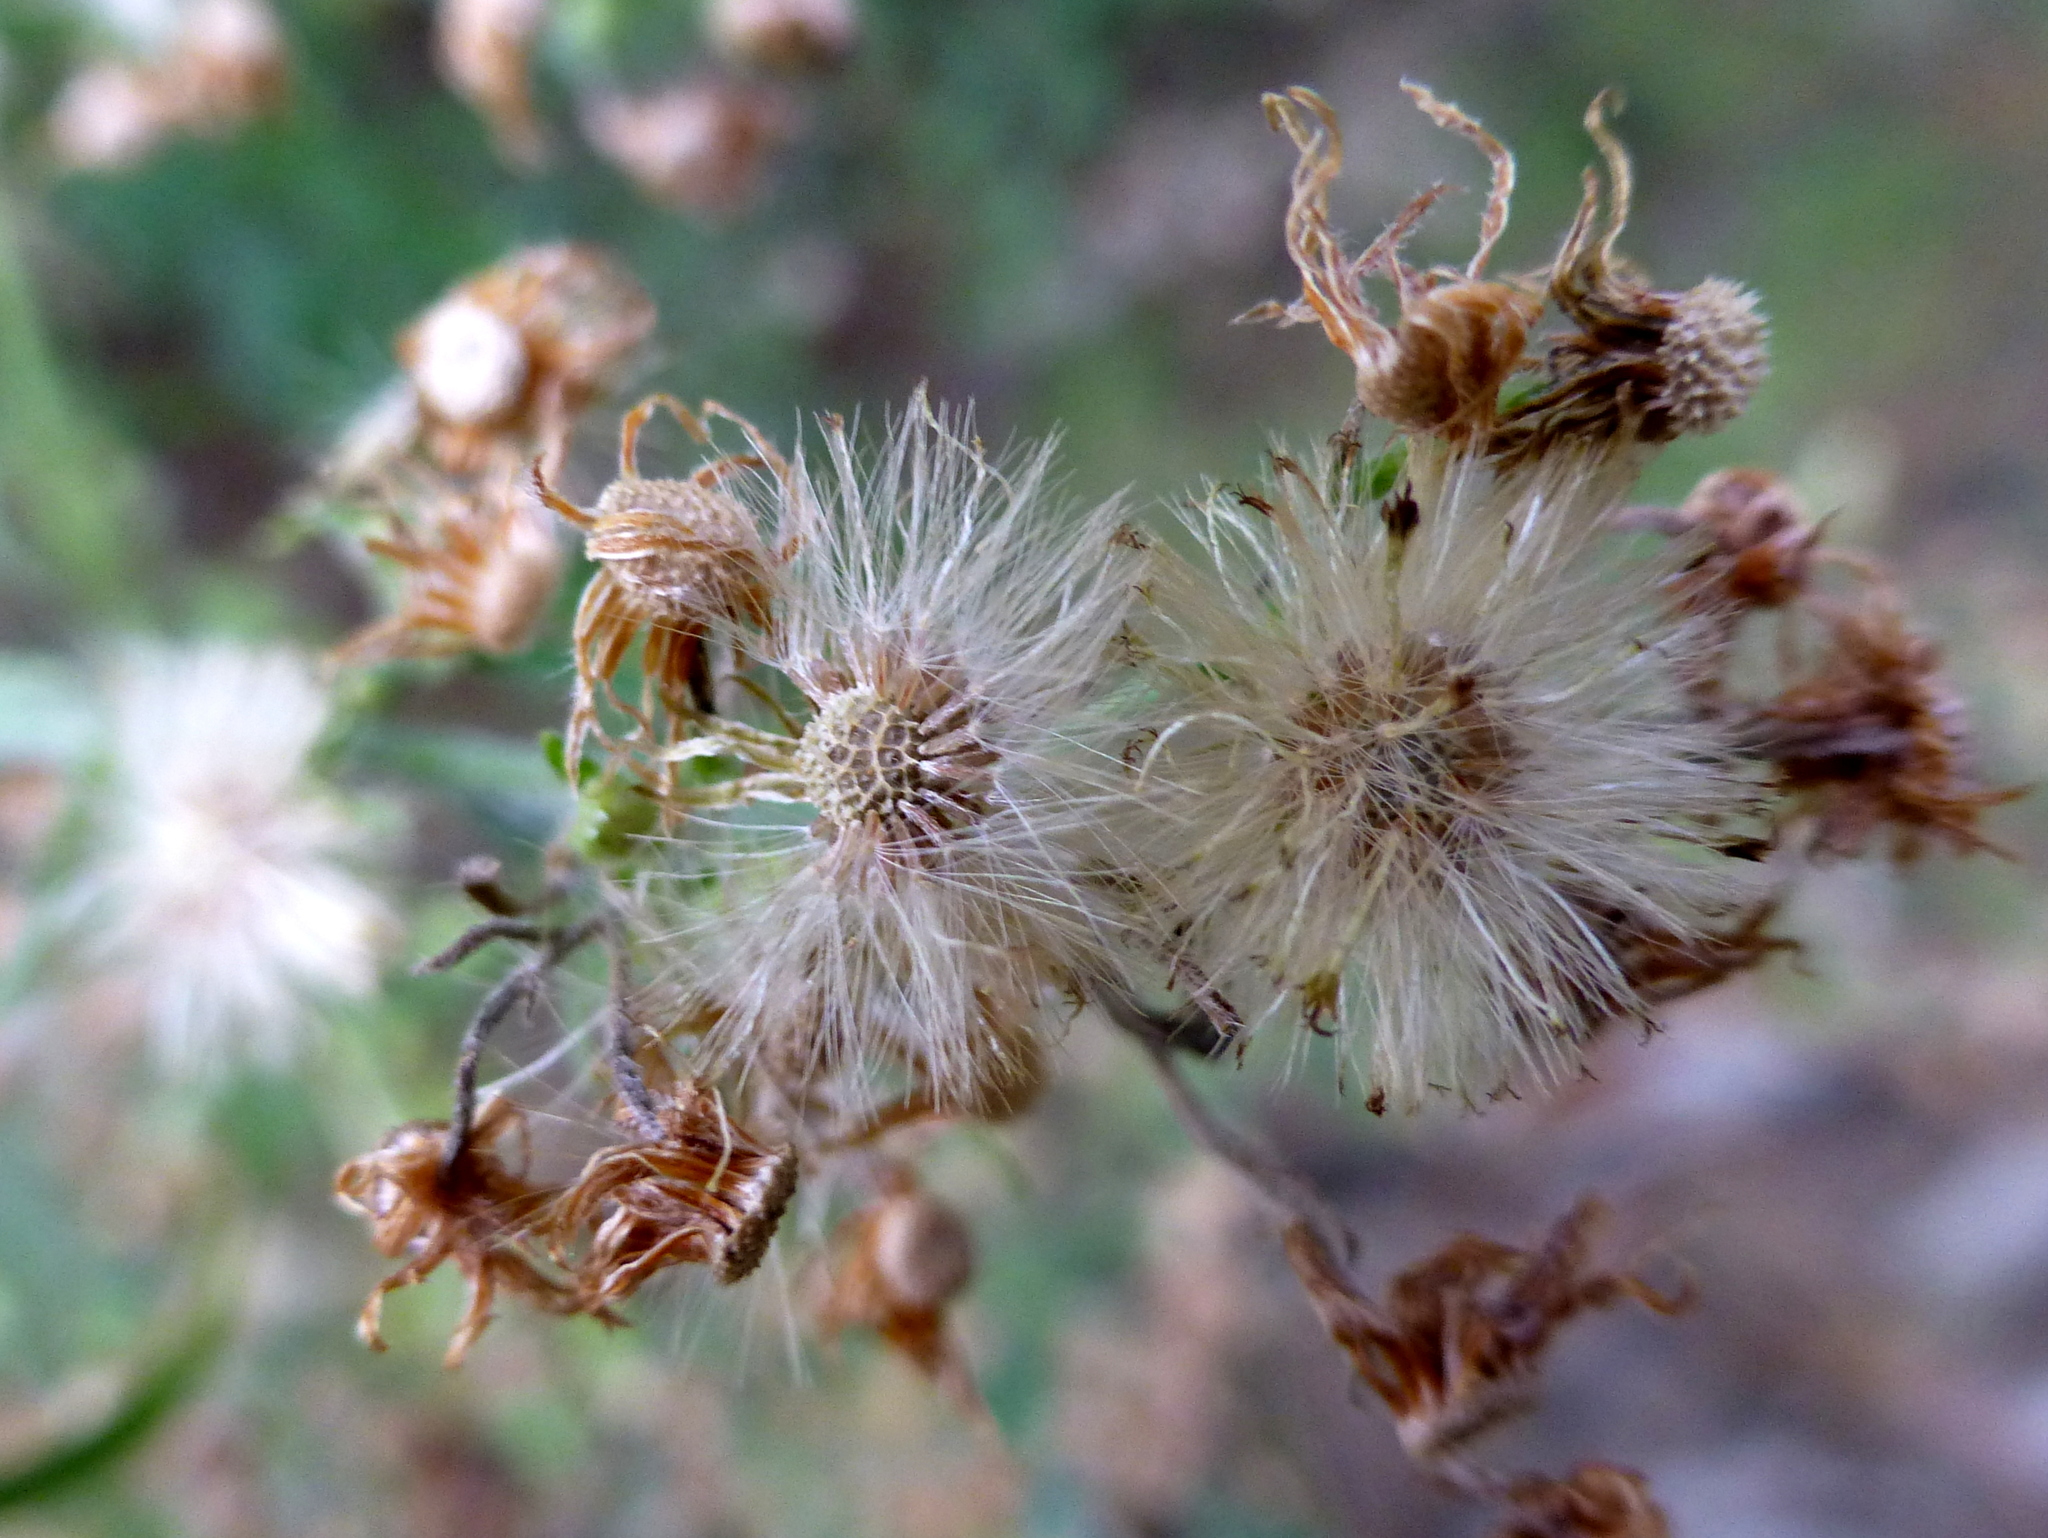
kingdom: Plantae
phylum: Tracheophyta
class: Magnoliopsida
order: Asterales
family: Asteraceae
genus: Erigeron
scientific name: Erigeron sumatrensis
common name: Daisy
